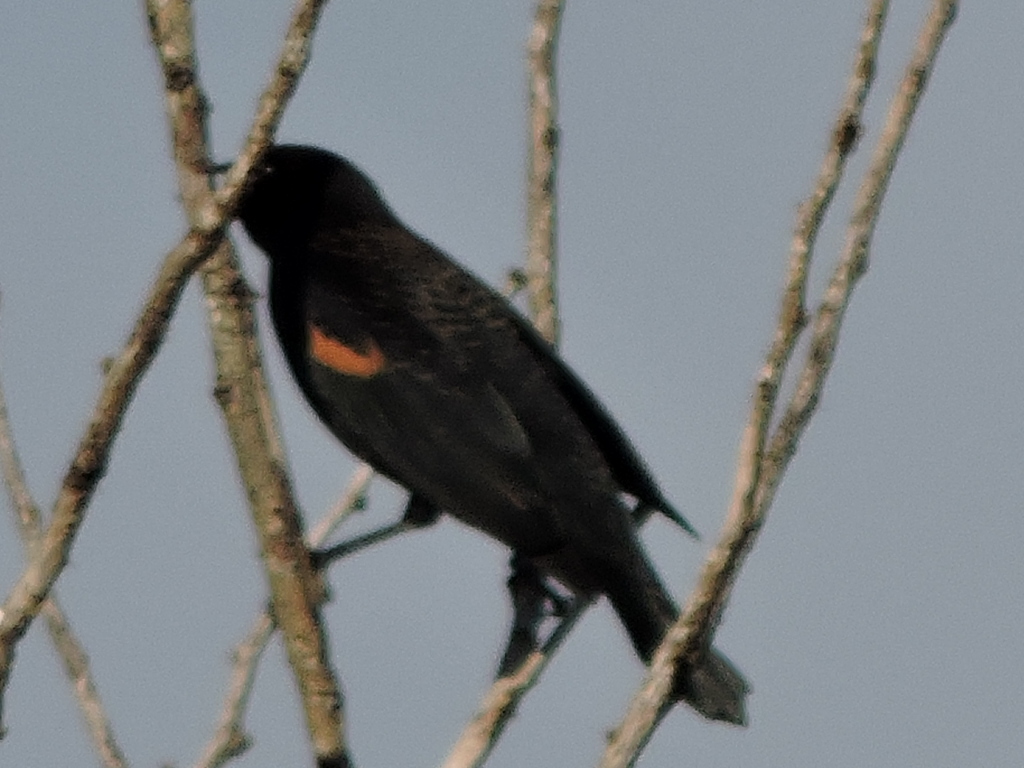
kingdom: Animalia
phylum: Chordata
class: Aves
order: Passeriformes
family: Icteridae
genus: Agelaius
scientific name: Agelaius phoeniceus
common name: Red-winged blackbird
